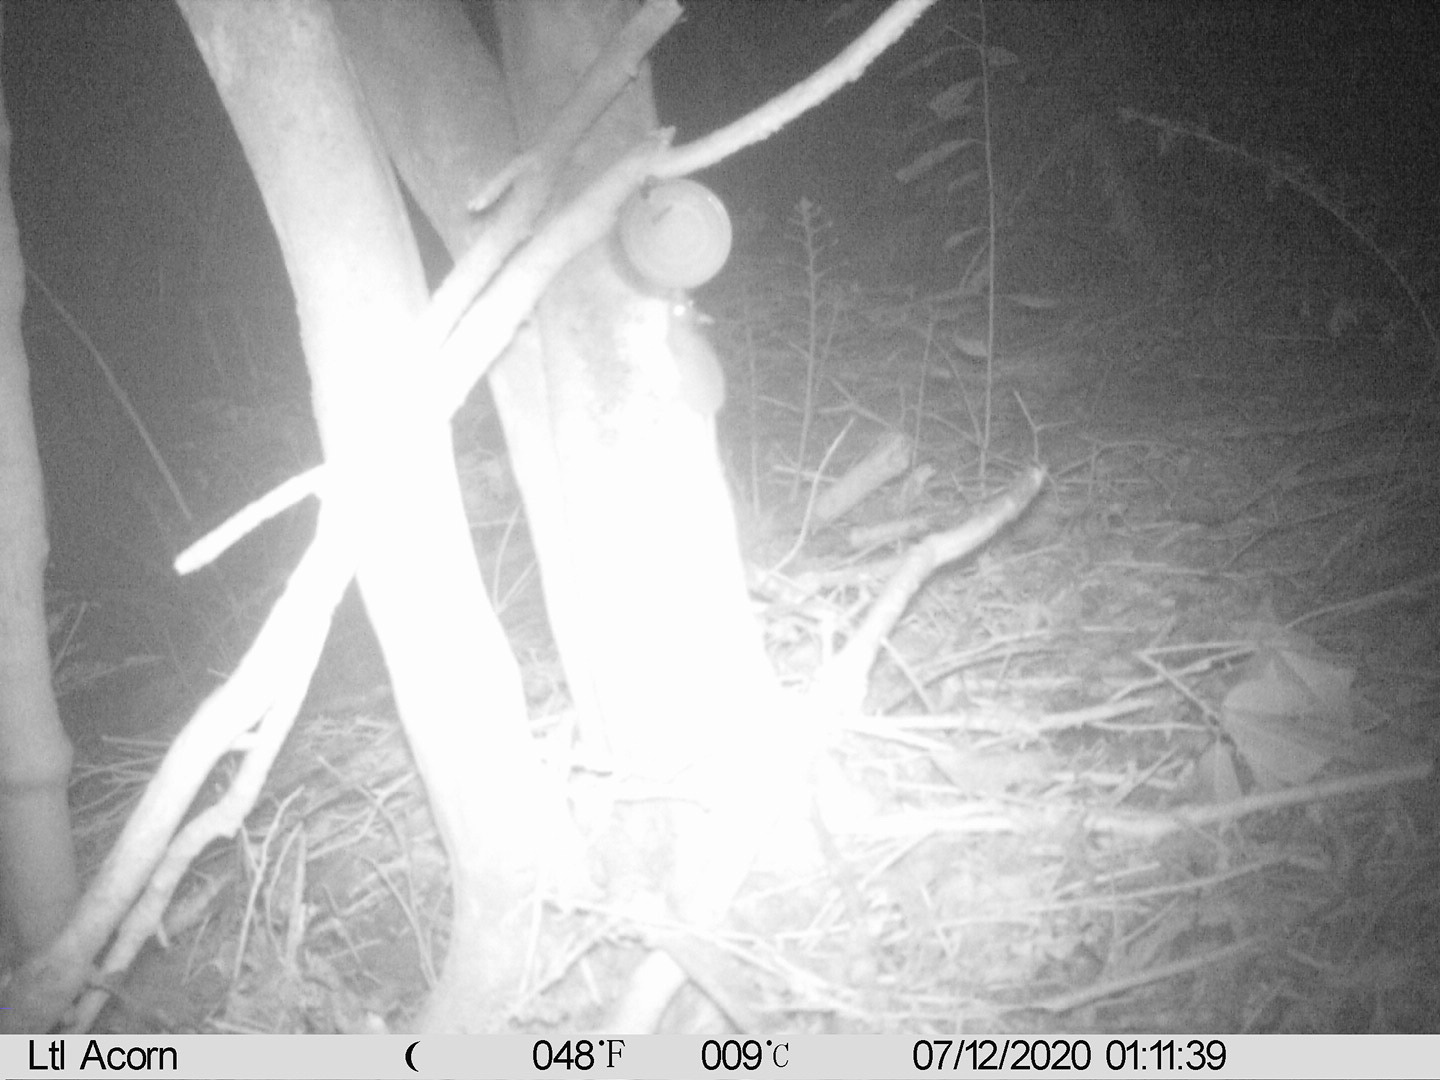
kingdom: Animalia
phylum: Chordata
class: Mammalia
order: Rodentia
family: Muridae
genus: Rattus
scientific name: Rattus rattus
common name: Black rat
